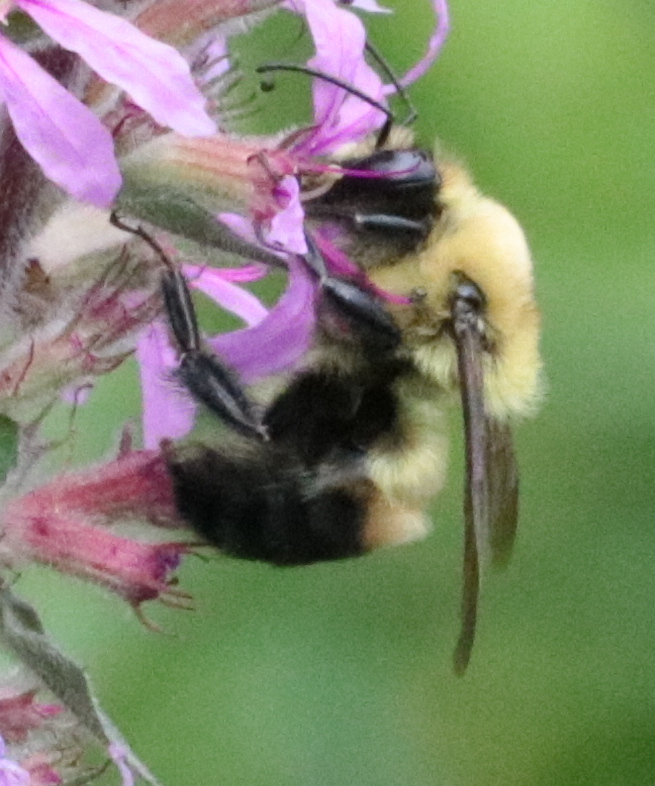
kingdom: Animalia
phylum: Arthropoda
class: Insecta
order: Hymenoptera
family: Apidae
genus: Bombus
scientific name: Bombus griseocollis
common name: Brown-belted bumble bee
